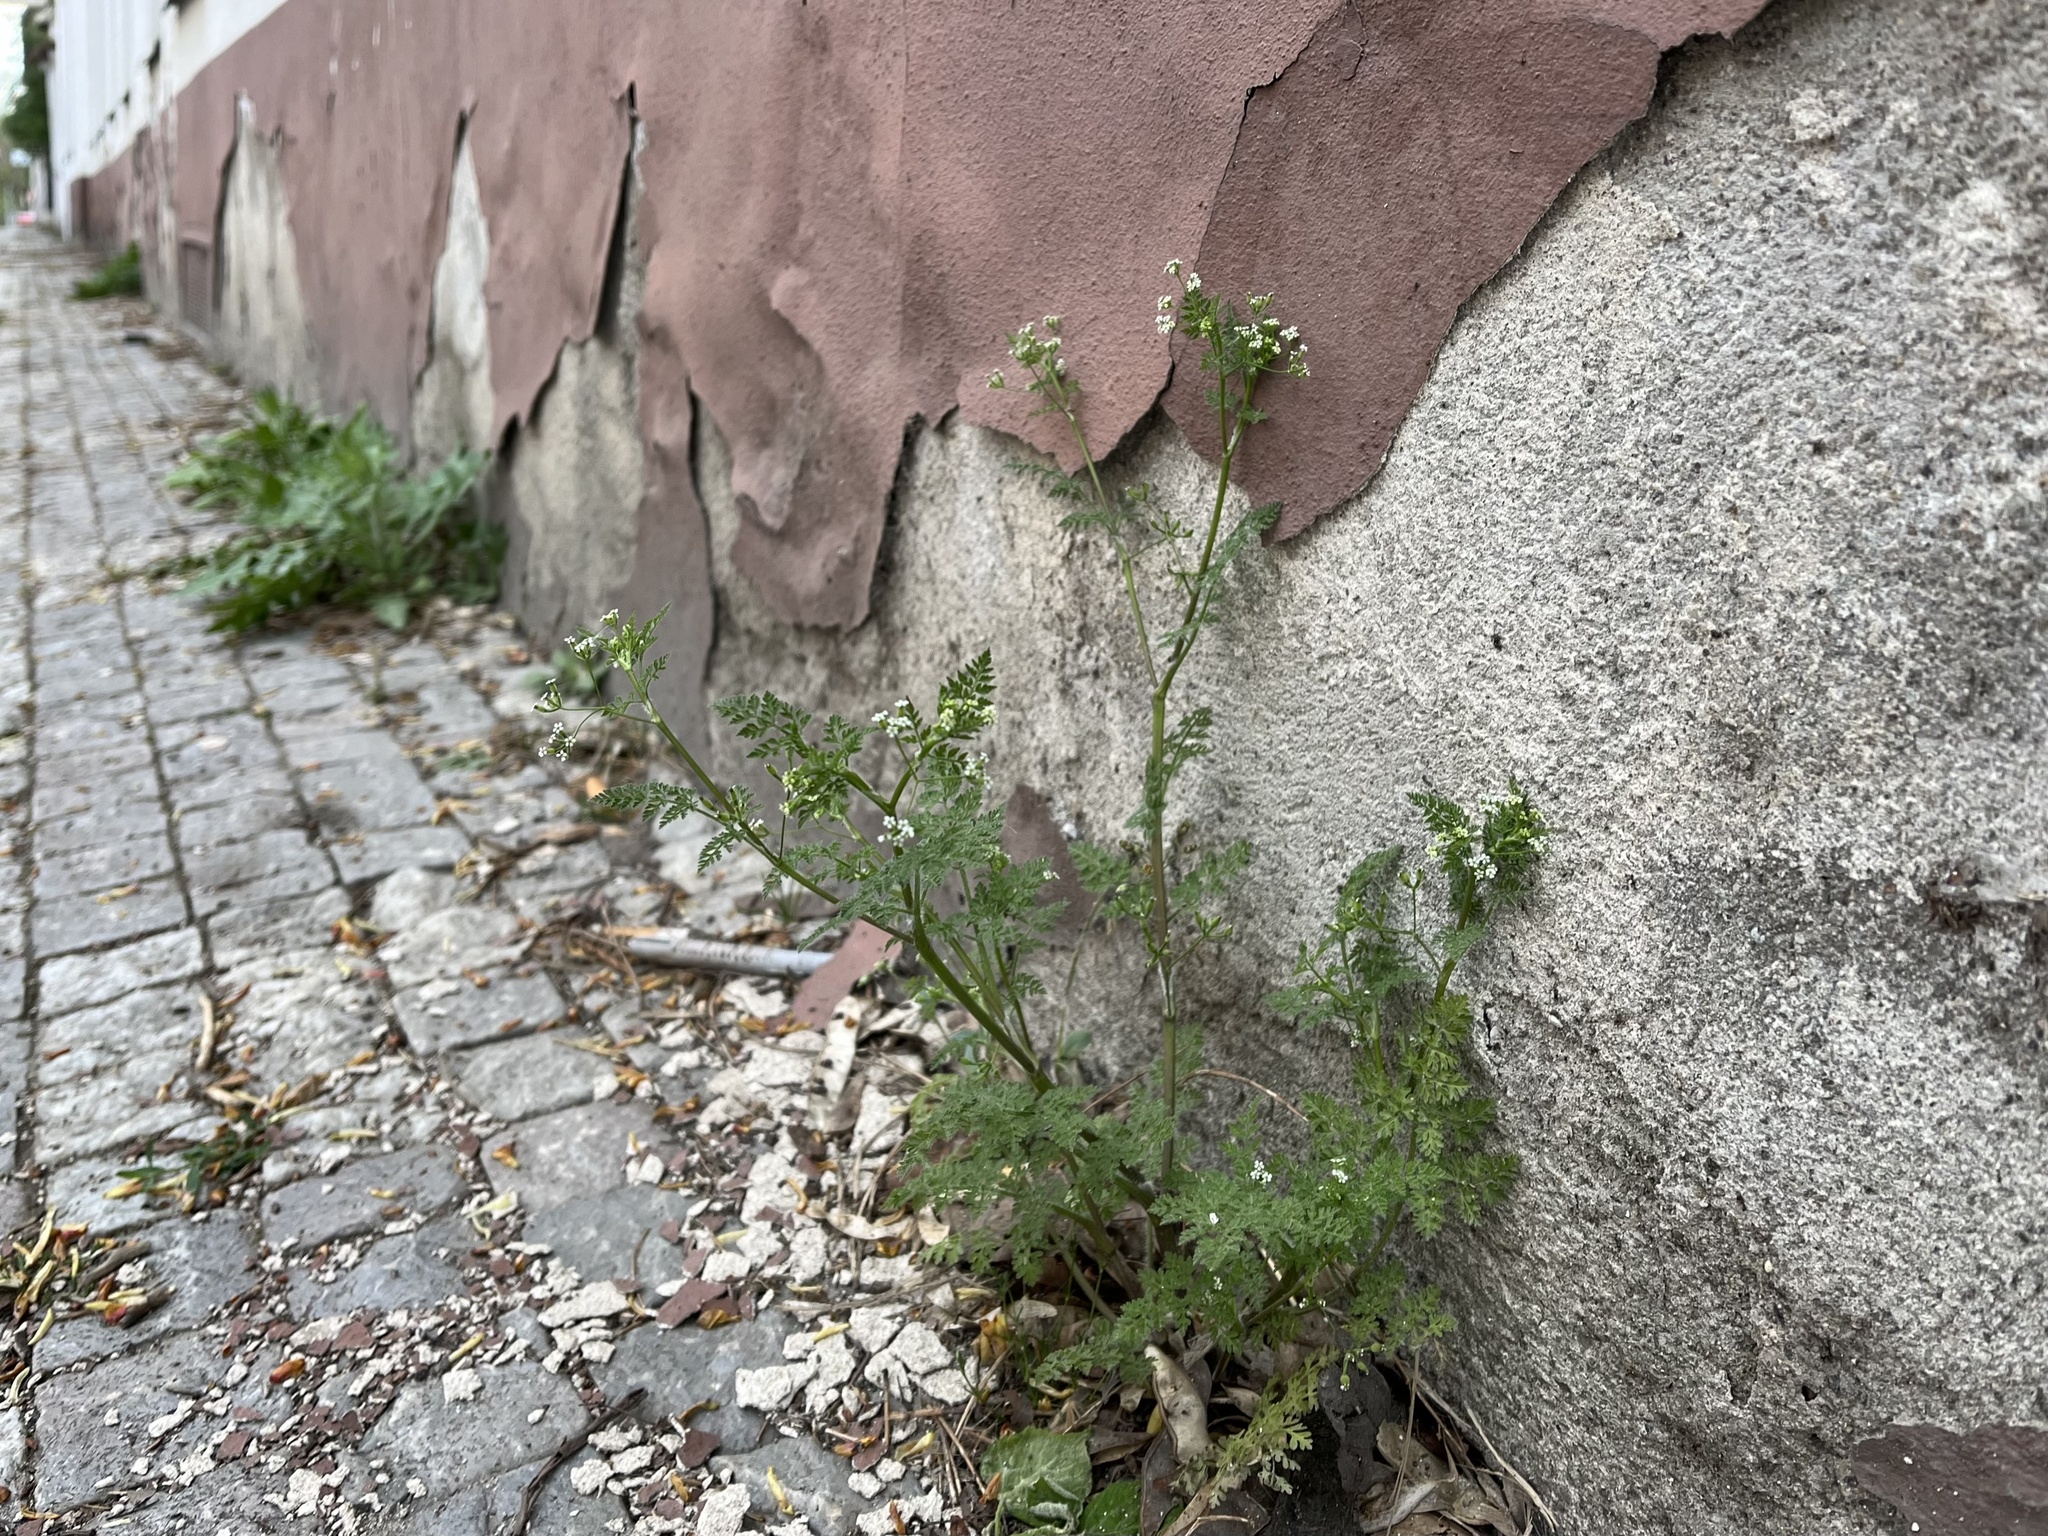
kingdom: Plantae
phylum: Tracheophyta
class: Magnoliopsida
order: Apiales
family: Apiaceae
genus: Anthriscus
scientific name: Anthriscus caucalis
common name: Bur chervil
